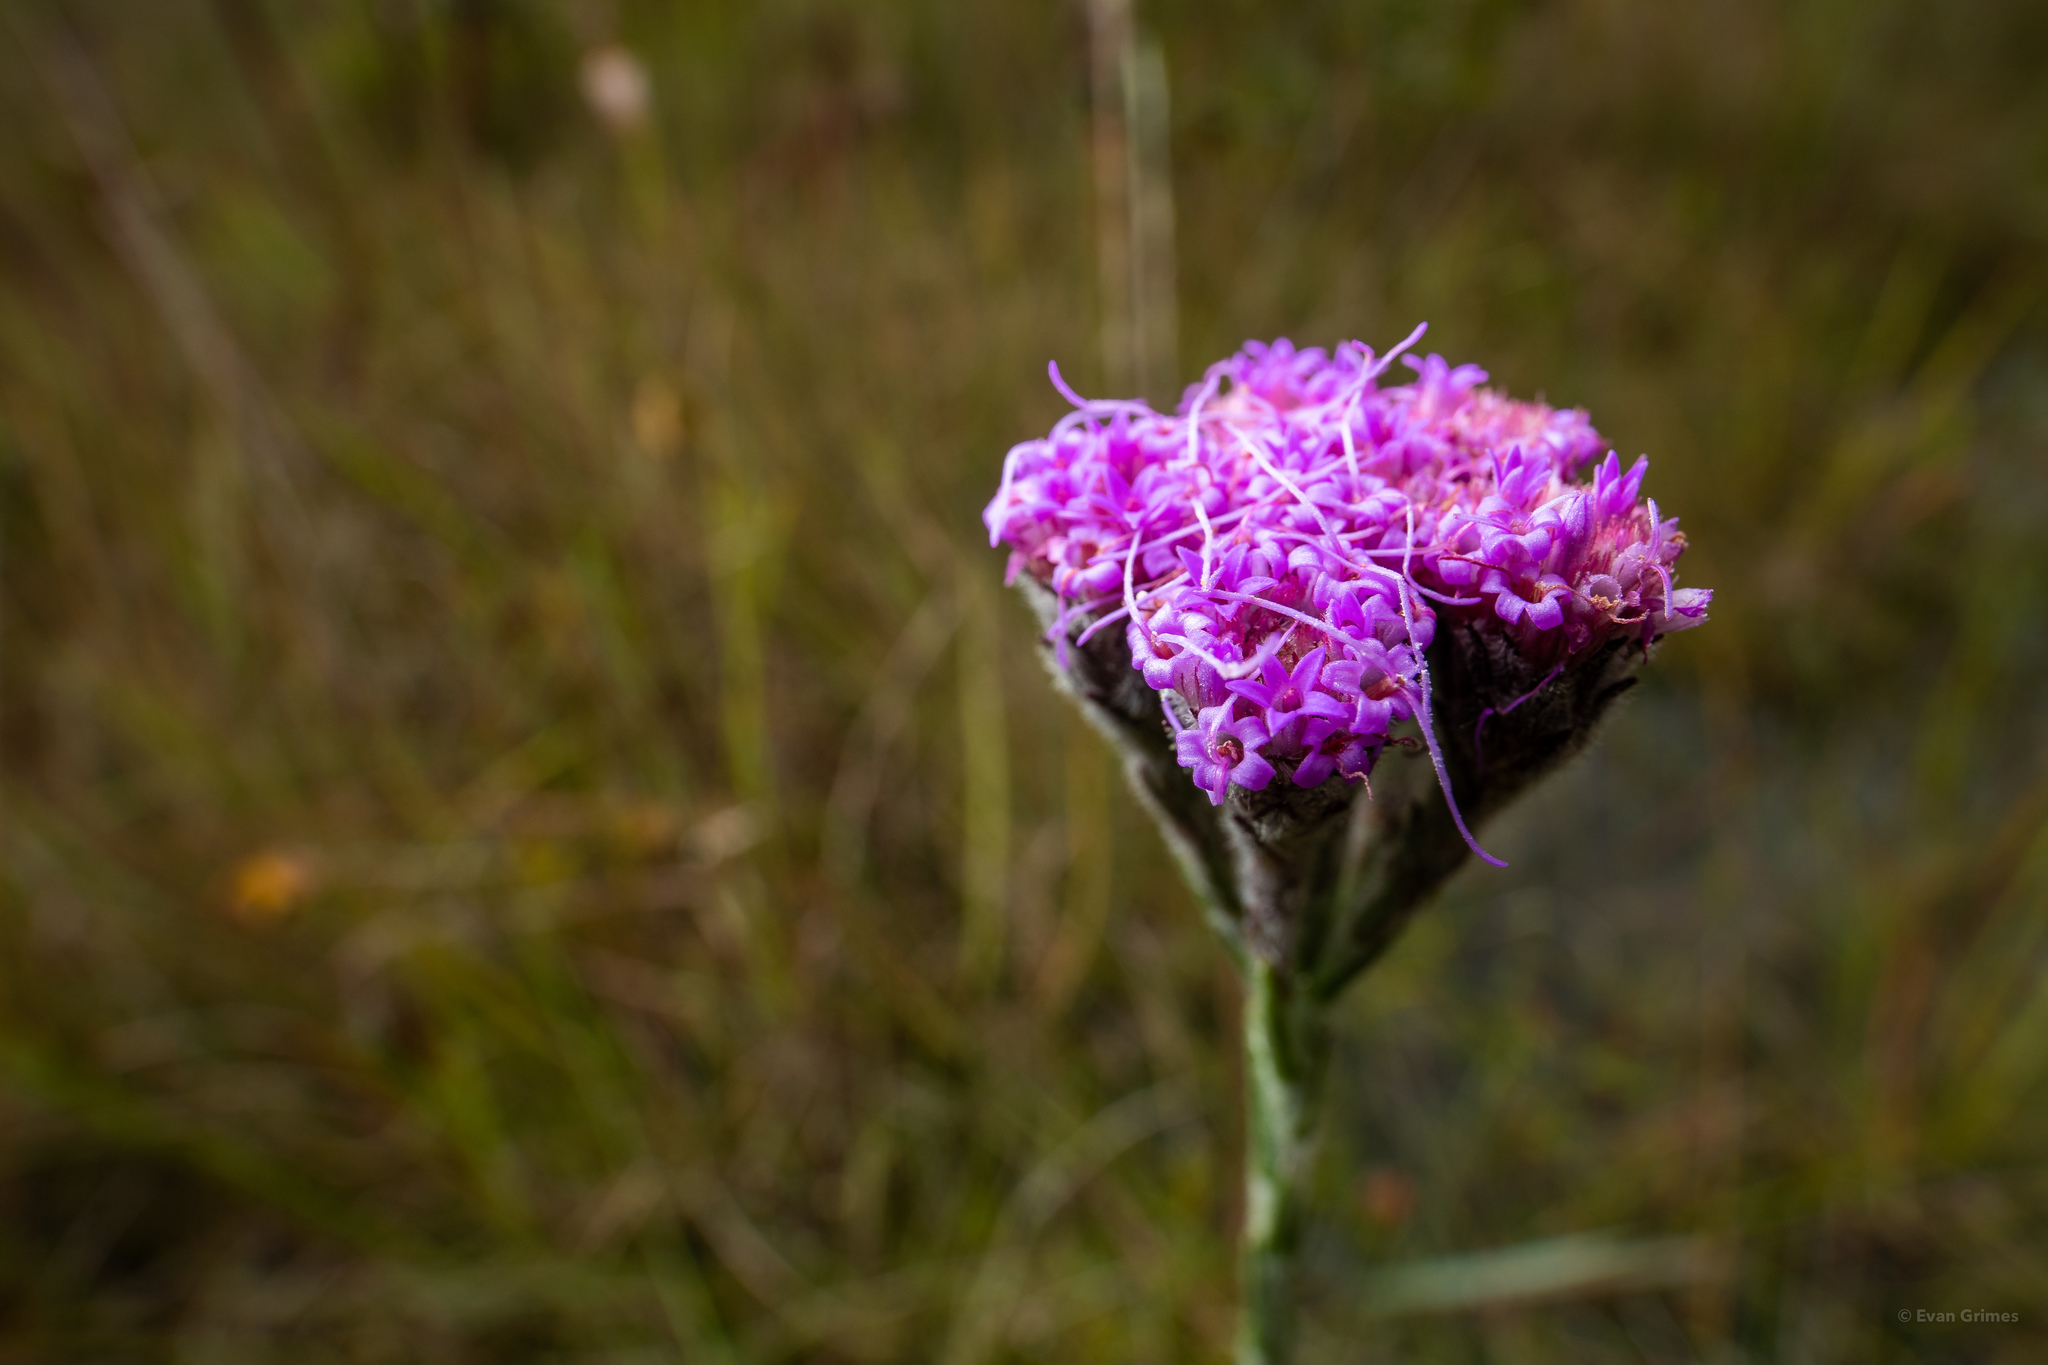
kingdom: Plantae
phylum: Tracheophyta
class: Magnoliopsida
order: Asterales
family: Asteraceae
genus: Carphephorus
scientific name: Carphephorus pseudoliatris
